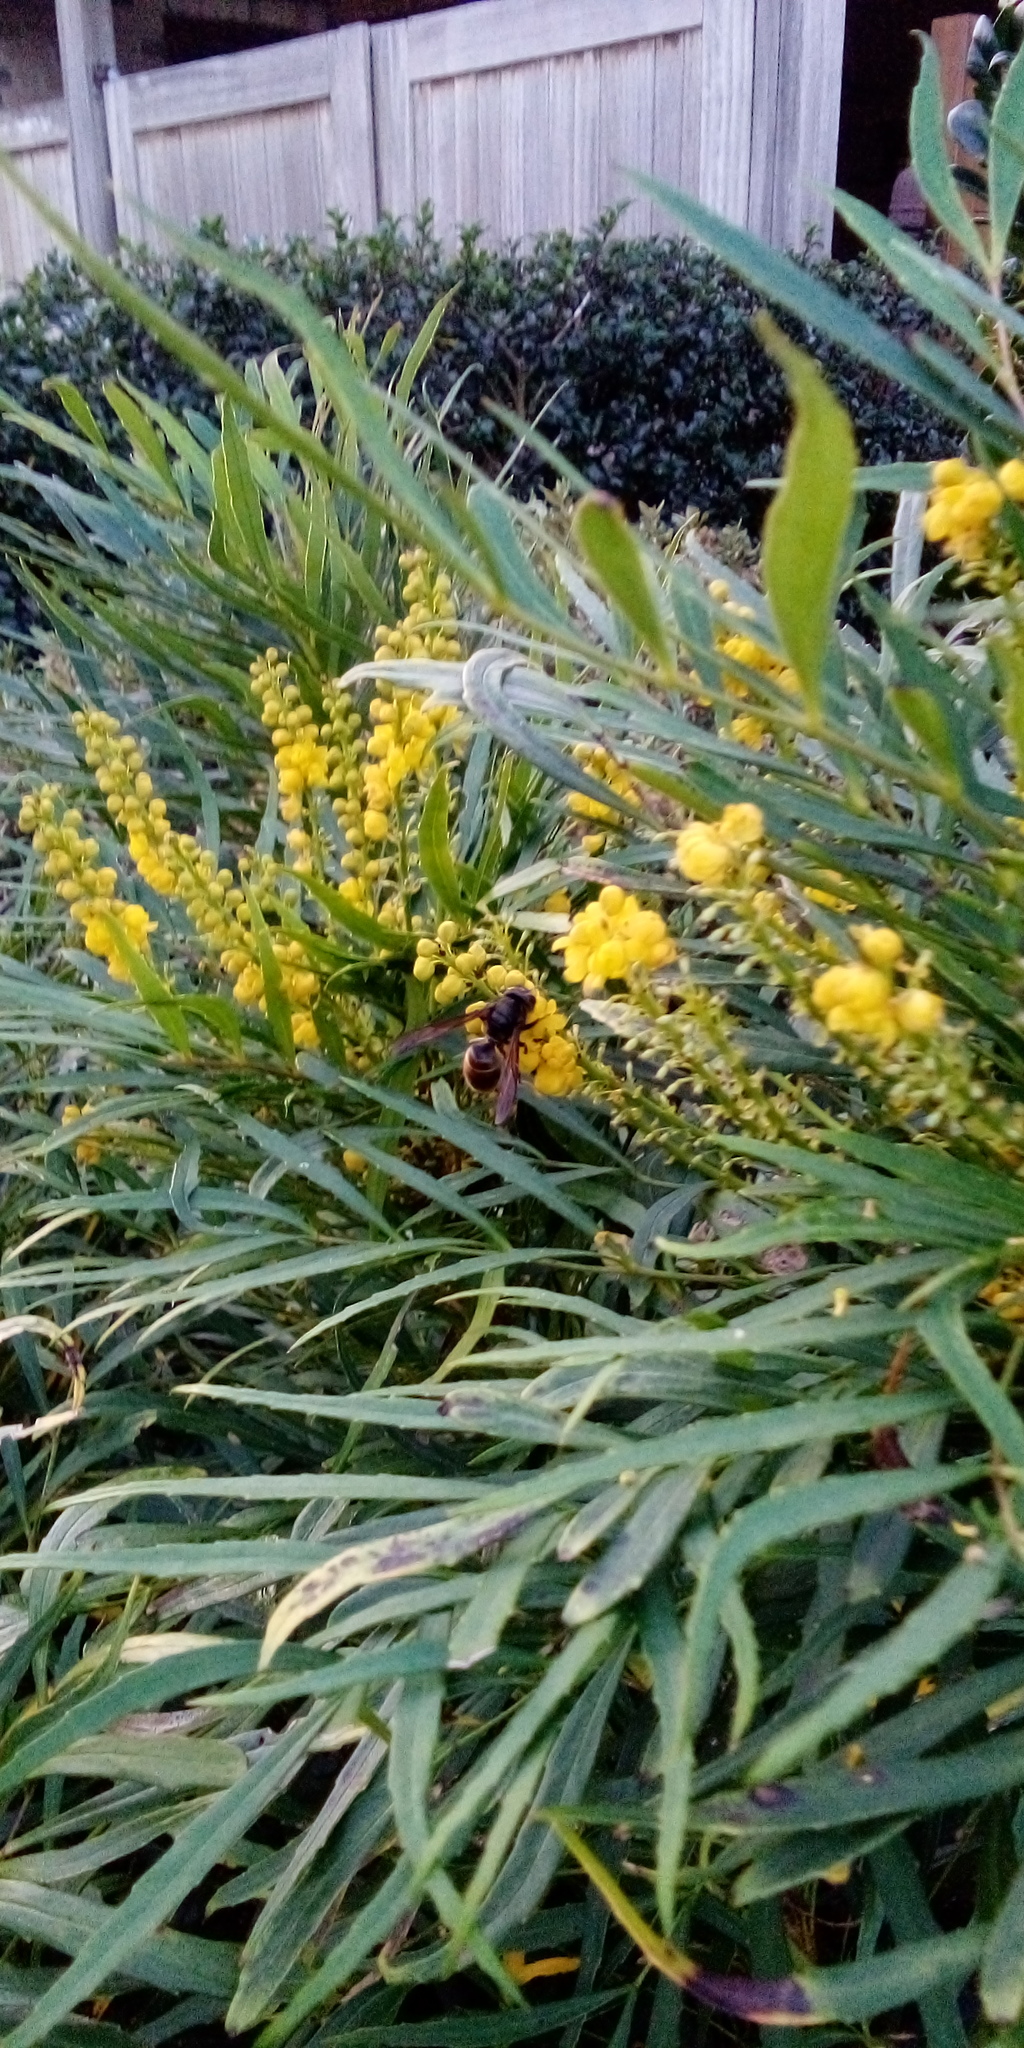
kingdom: Animalia
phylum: Arthropoda
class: Insecta
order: Hymenoptera
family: Vespidae
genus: Vespa
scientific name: Vespa velutina
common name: Asian hornet
